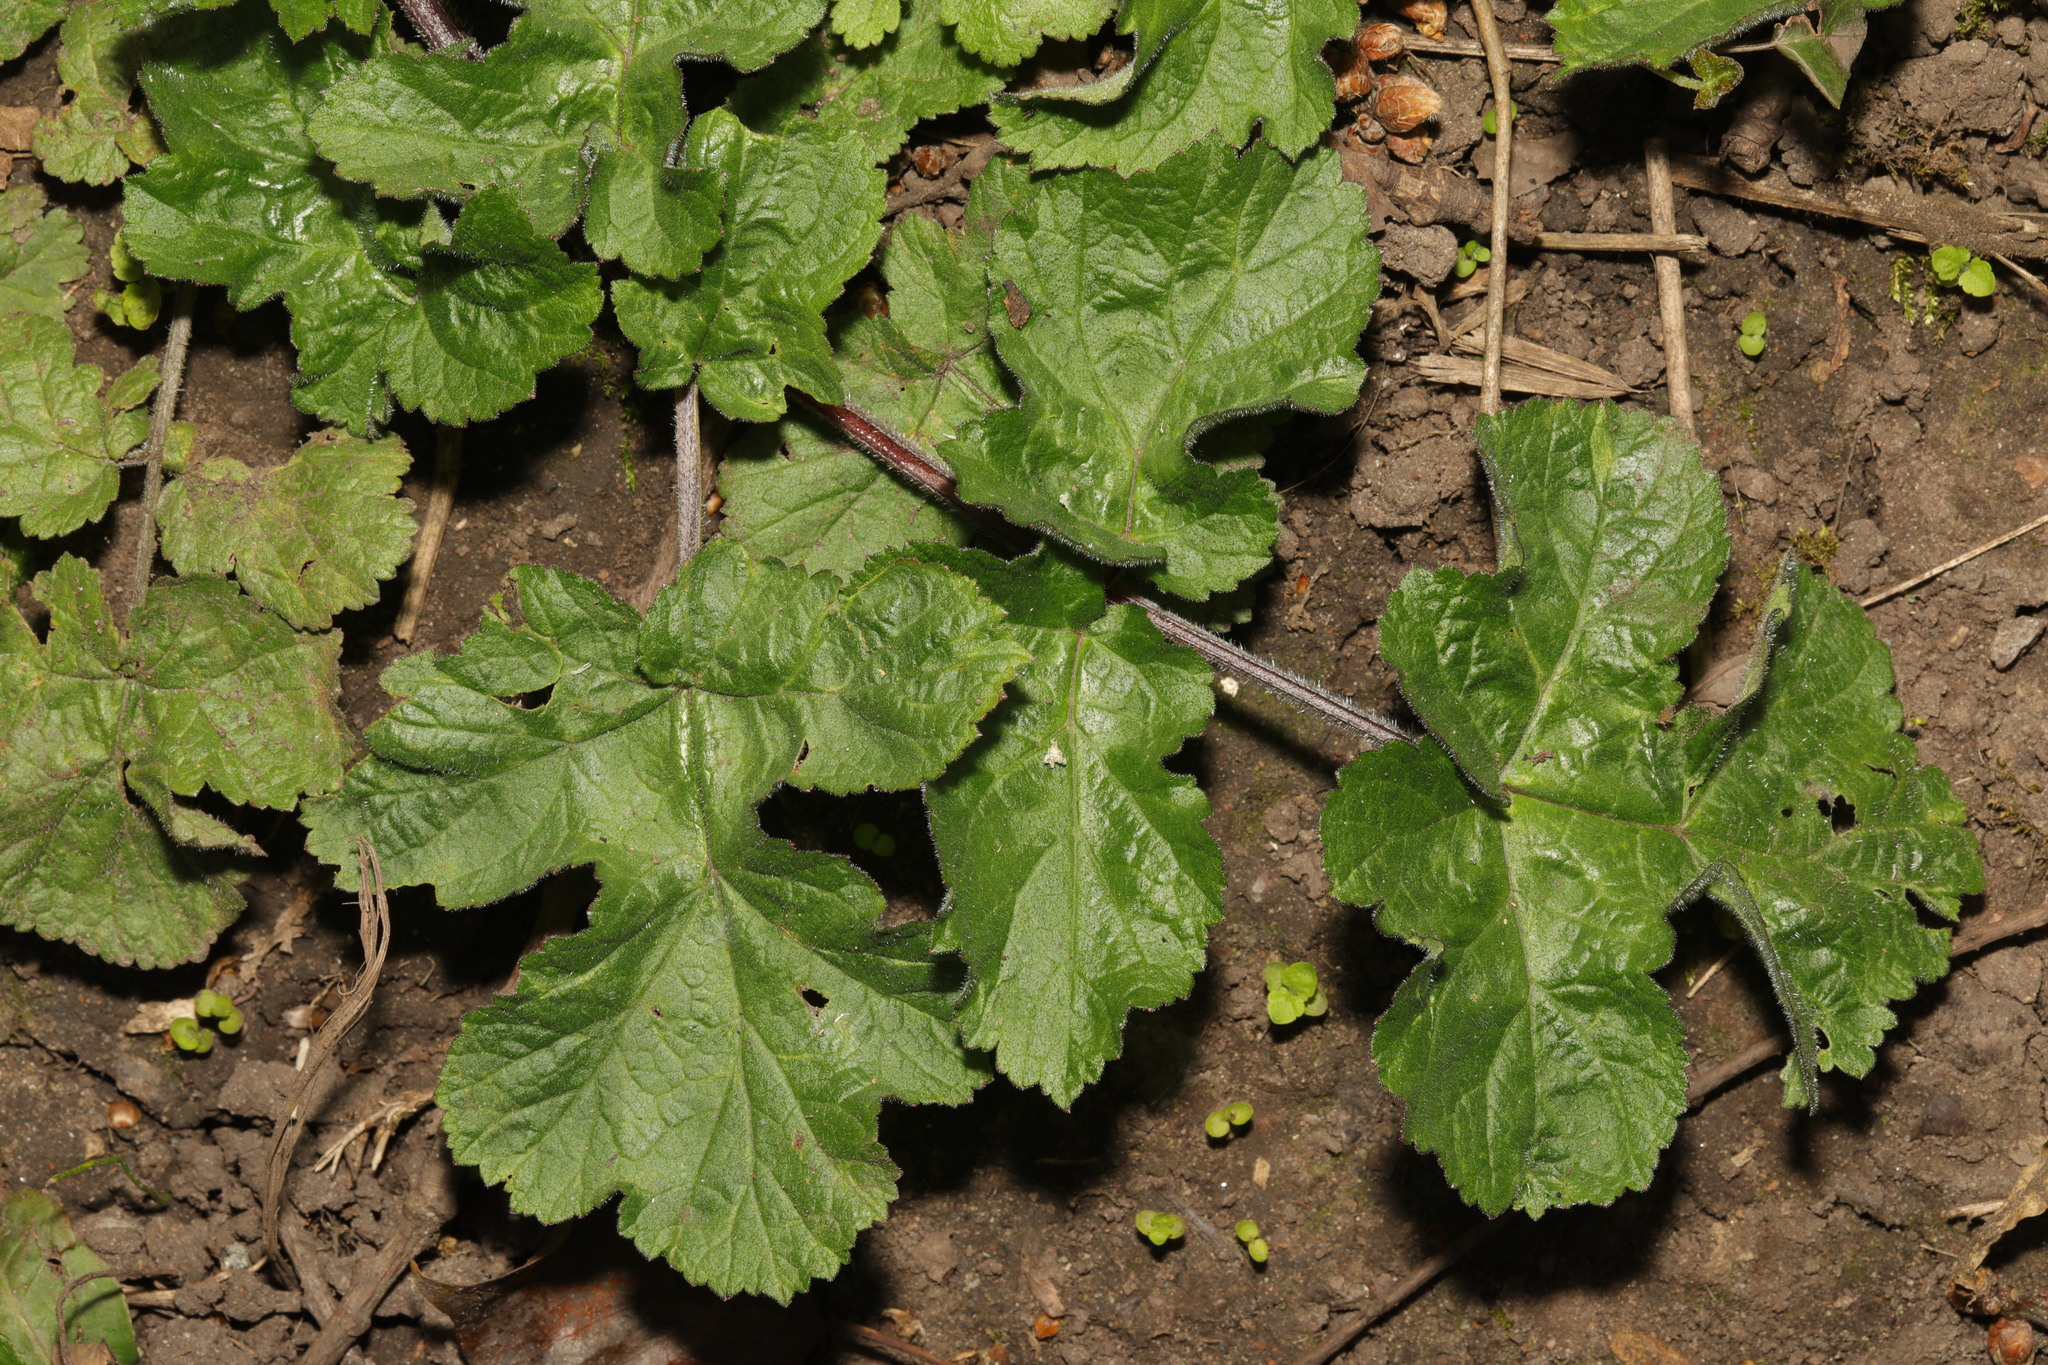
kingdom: Plantae
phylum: Tracheophyta
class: Magnoliopsida
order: Apiales
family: Apiaceae
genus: Heracleum
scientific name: Heracleum sphondylium
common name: Hogweed
